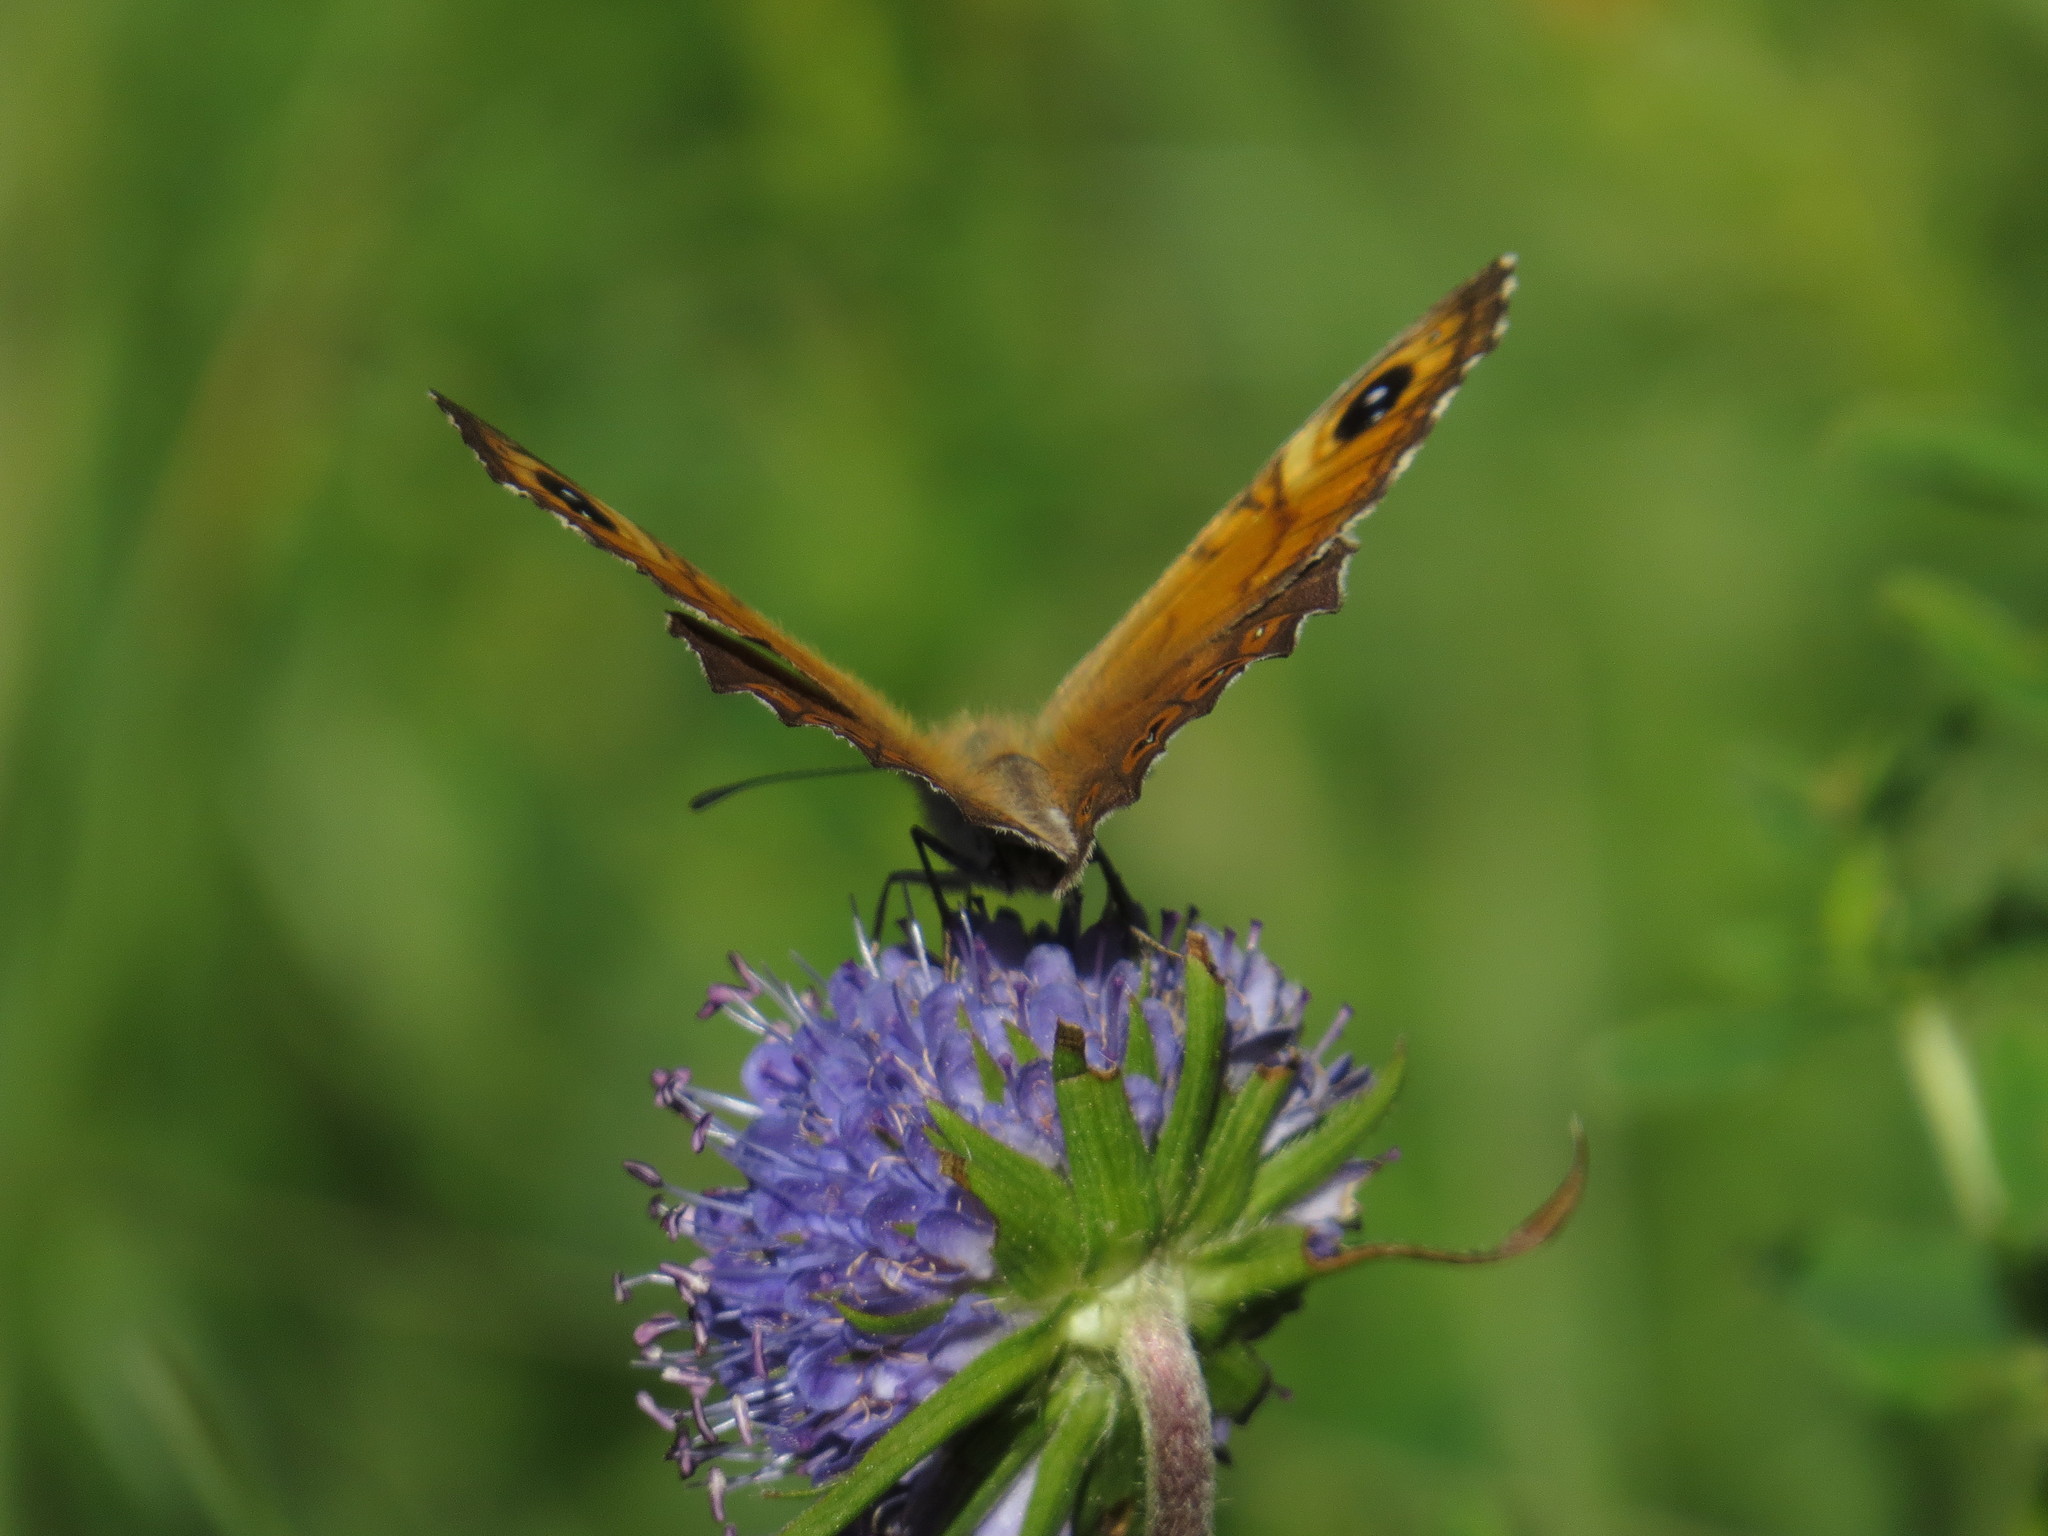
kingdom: Animalia
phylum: Arthropoda
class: Insecta
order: Lepidoptera
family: Nymphalidae
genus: Pararge
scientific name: Pararge Lasiommata maera
